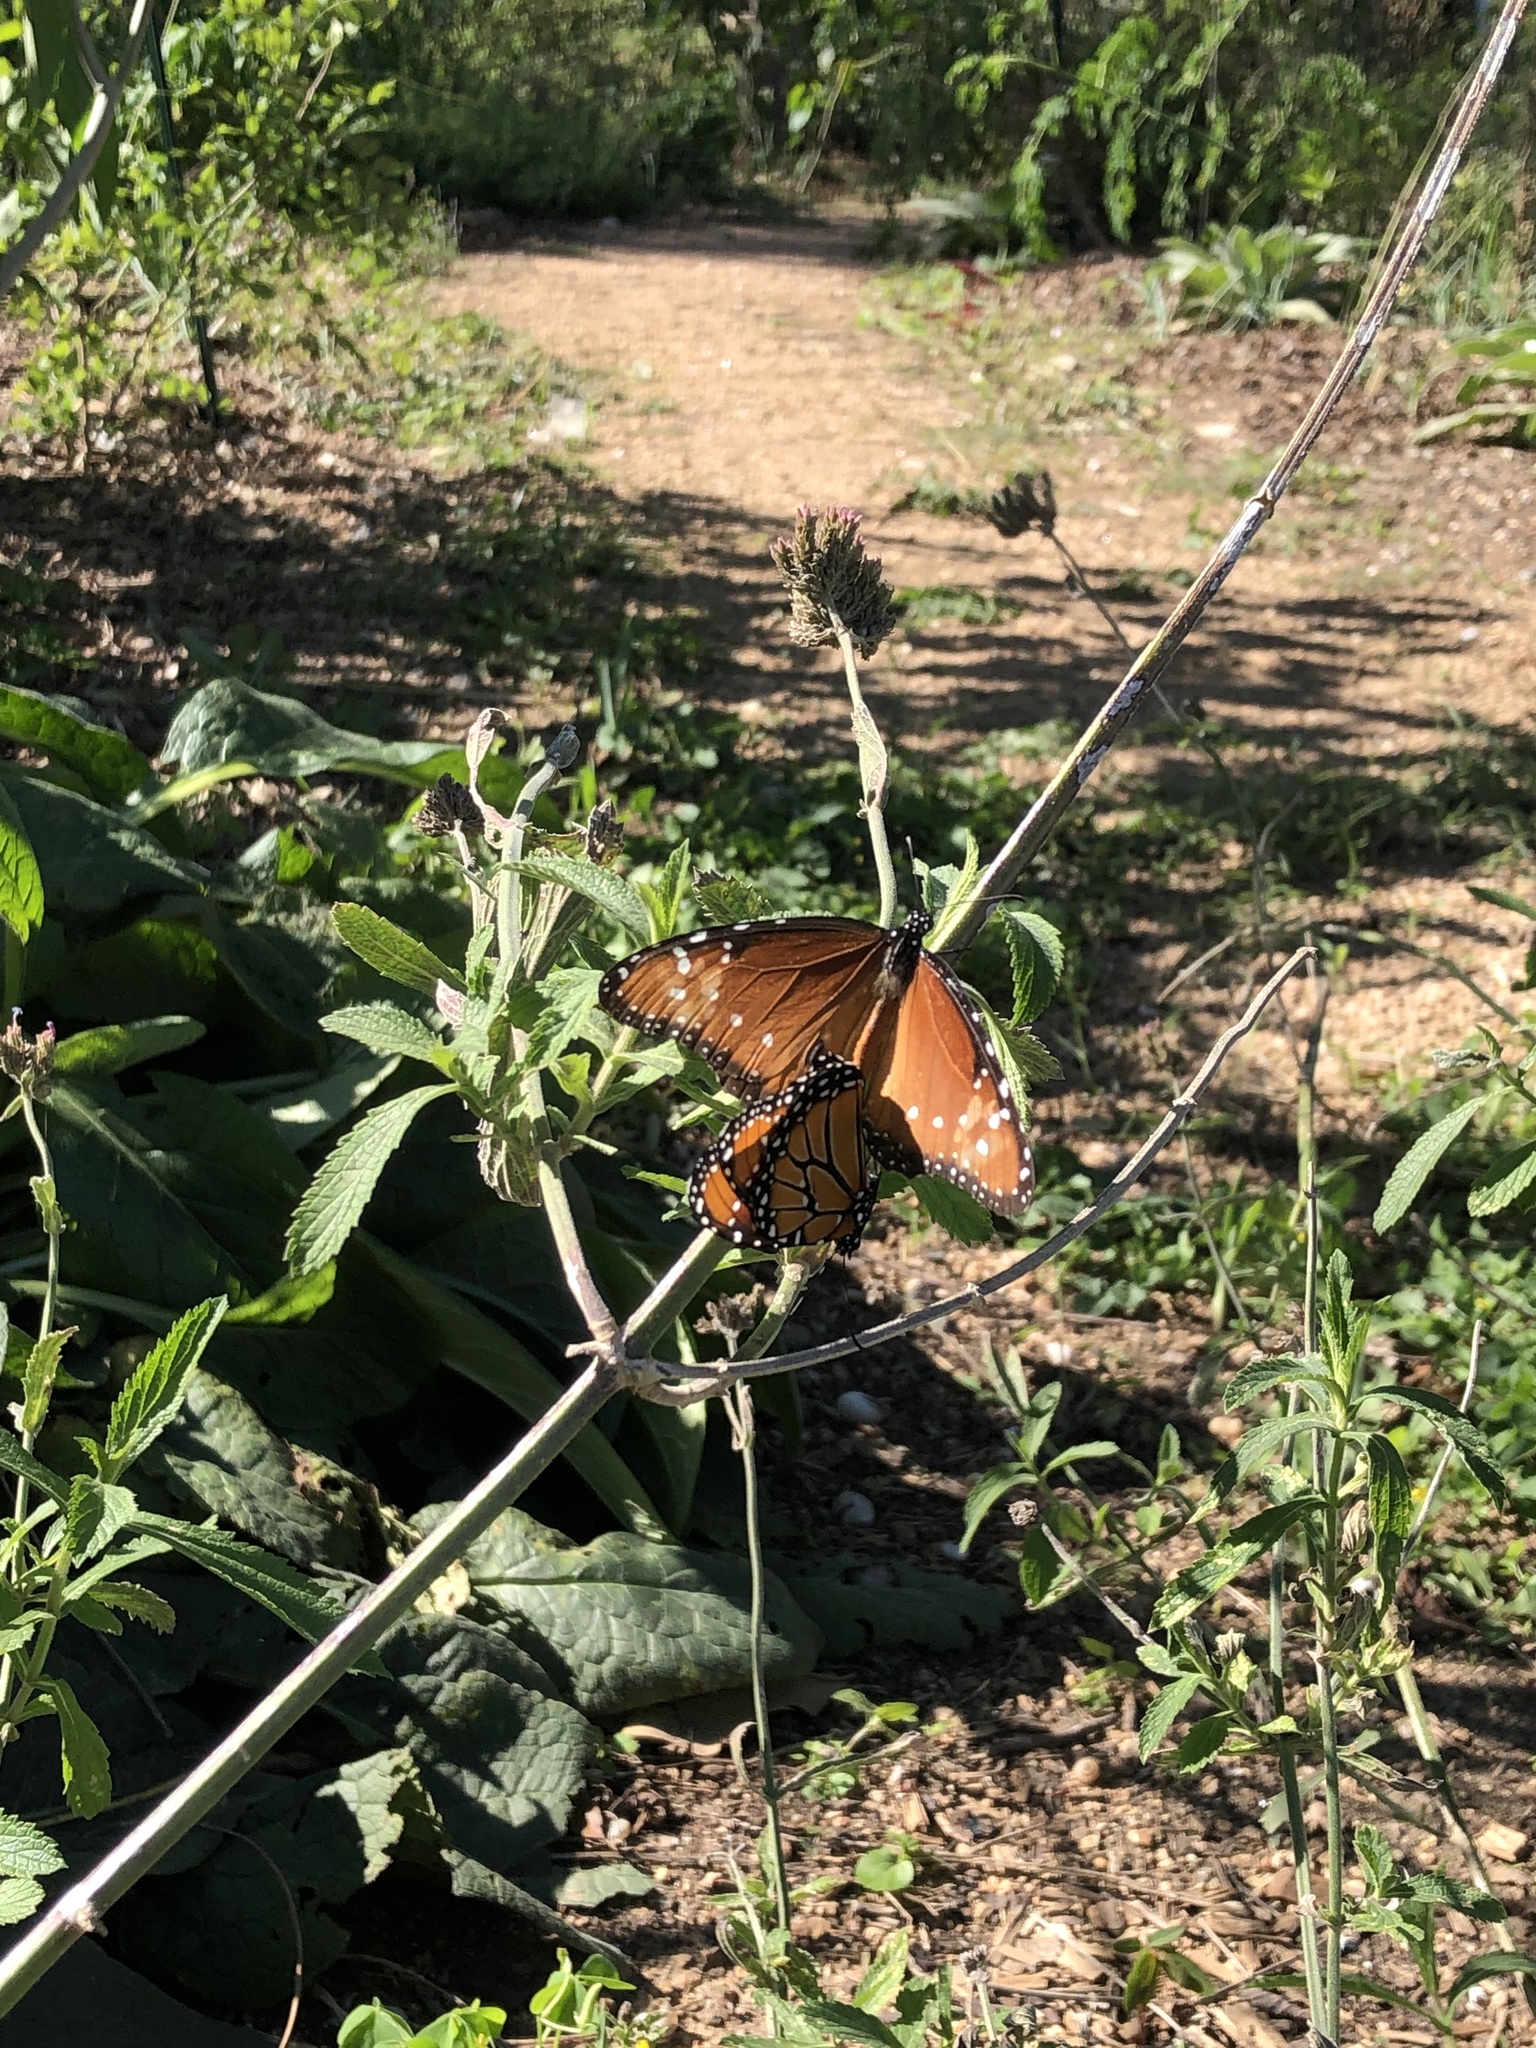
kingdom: Animalia
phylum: Arthropoda
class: Insecta
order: Lepidoptera
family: Nymphalidae
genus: Danaus
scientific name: Danaus gilippus
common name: Queen
